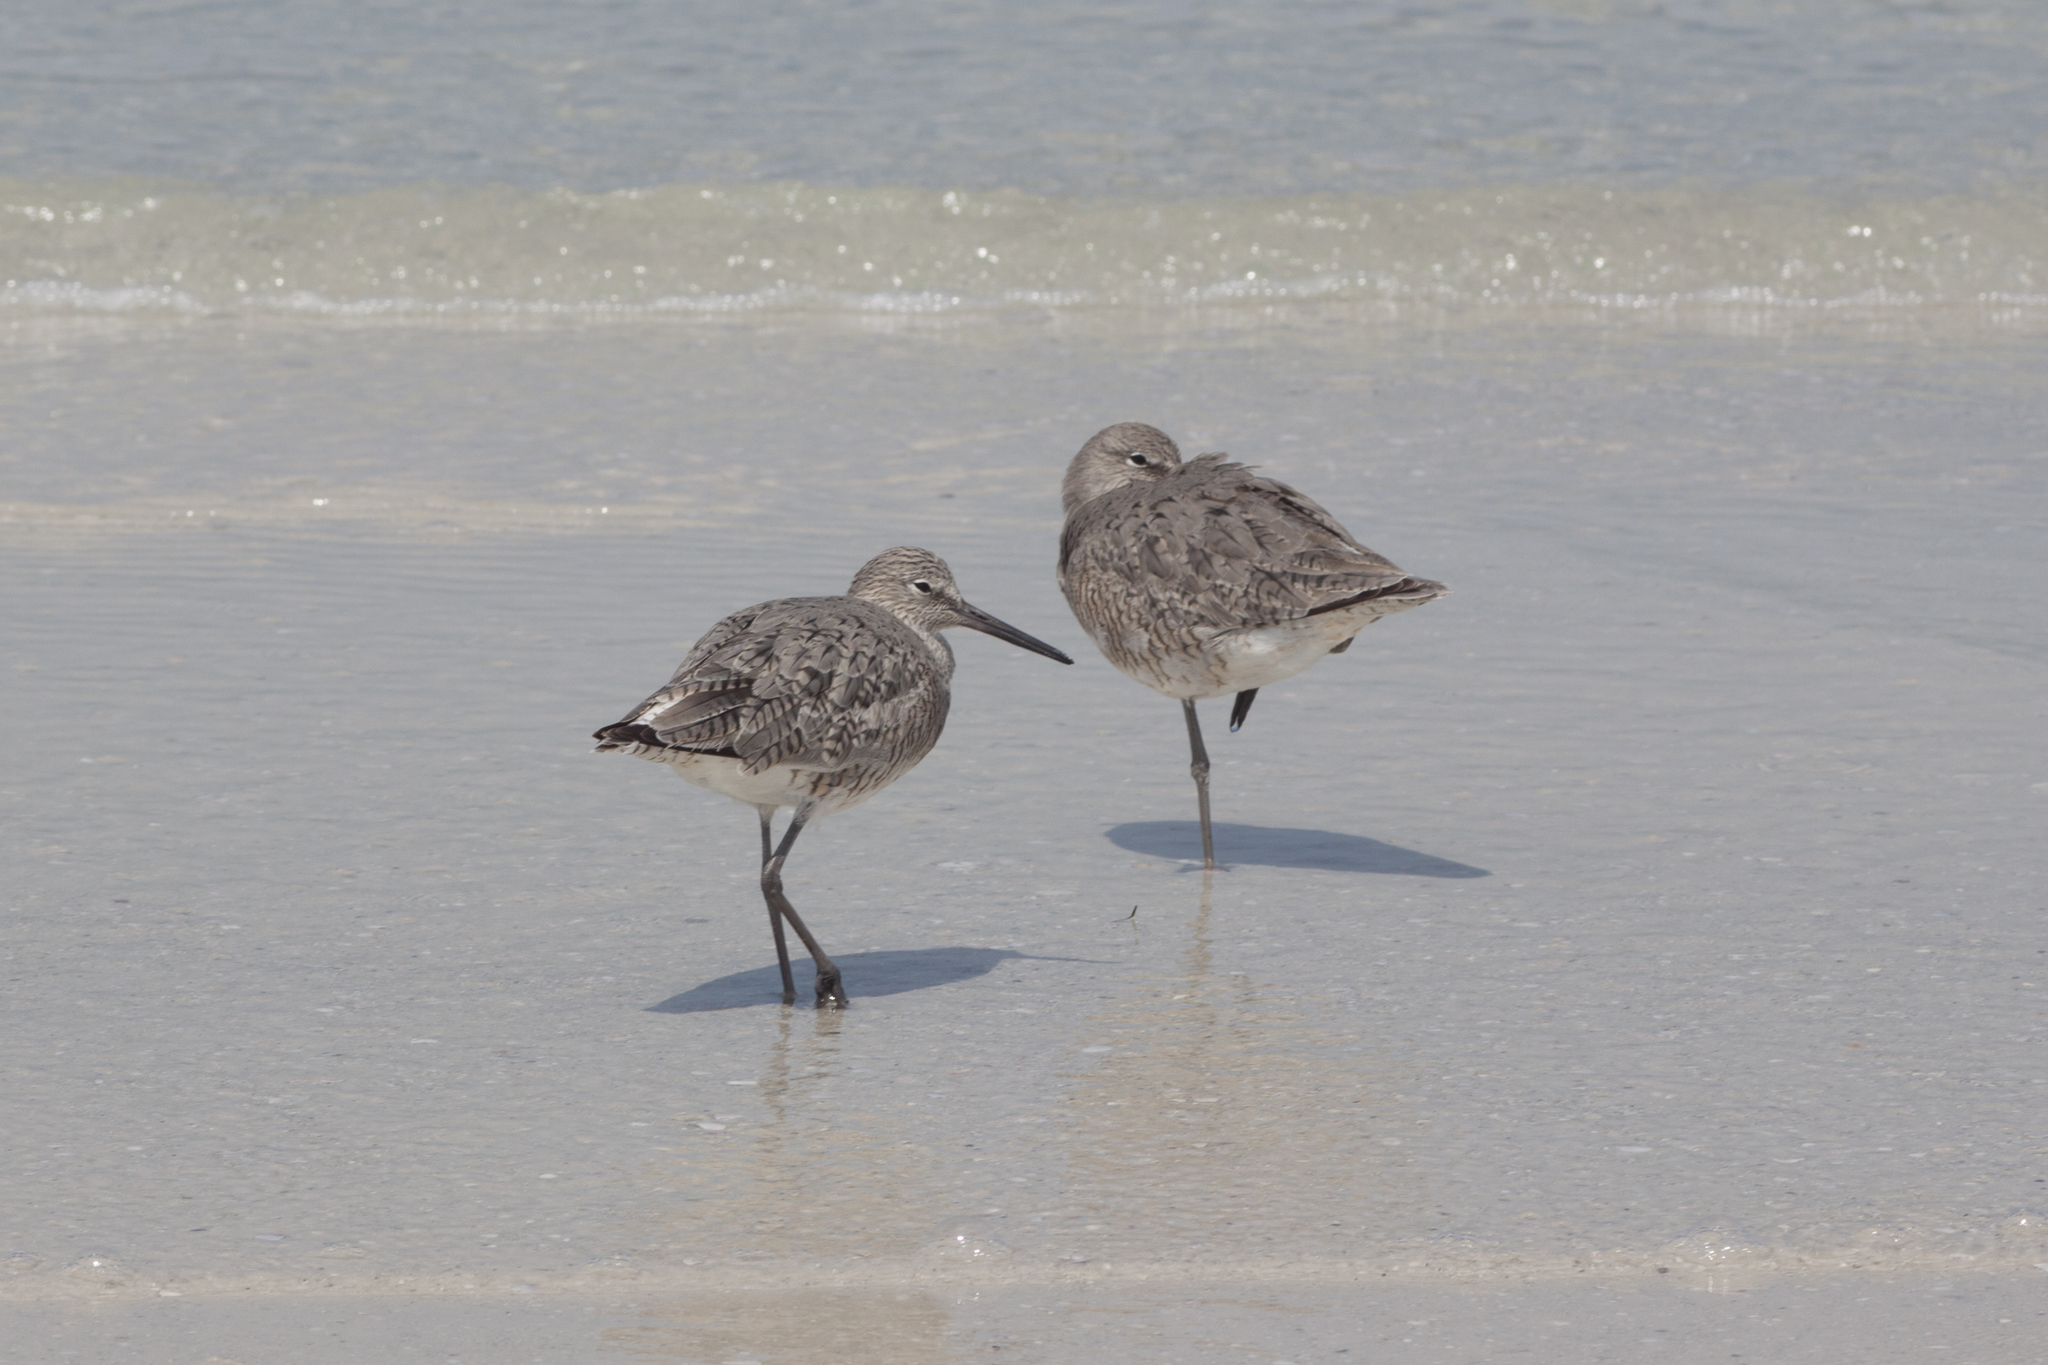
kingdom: Animalia
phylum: Chordata
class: Aves
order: Charadriiformes
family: Scolopacidae
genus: Tringa
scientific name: Tringa semipalmata
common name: Willet
